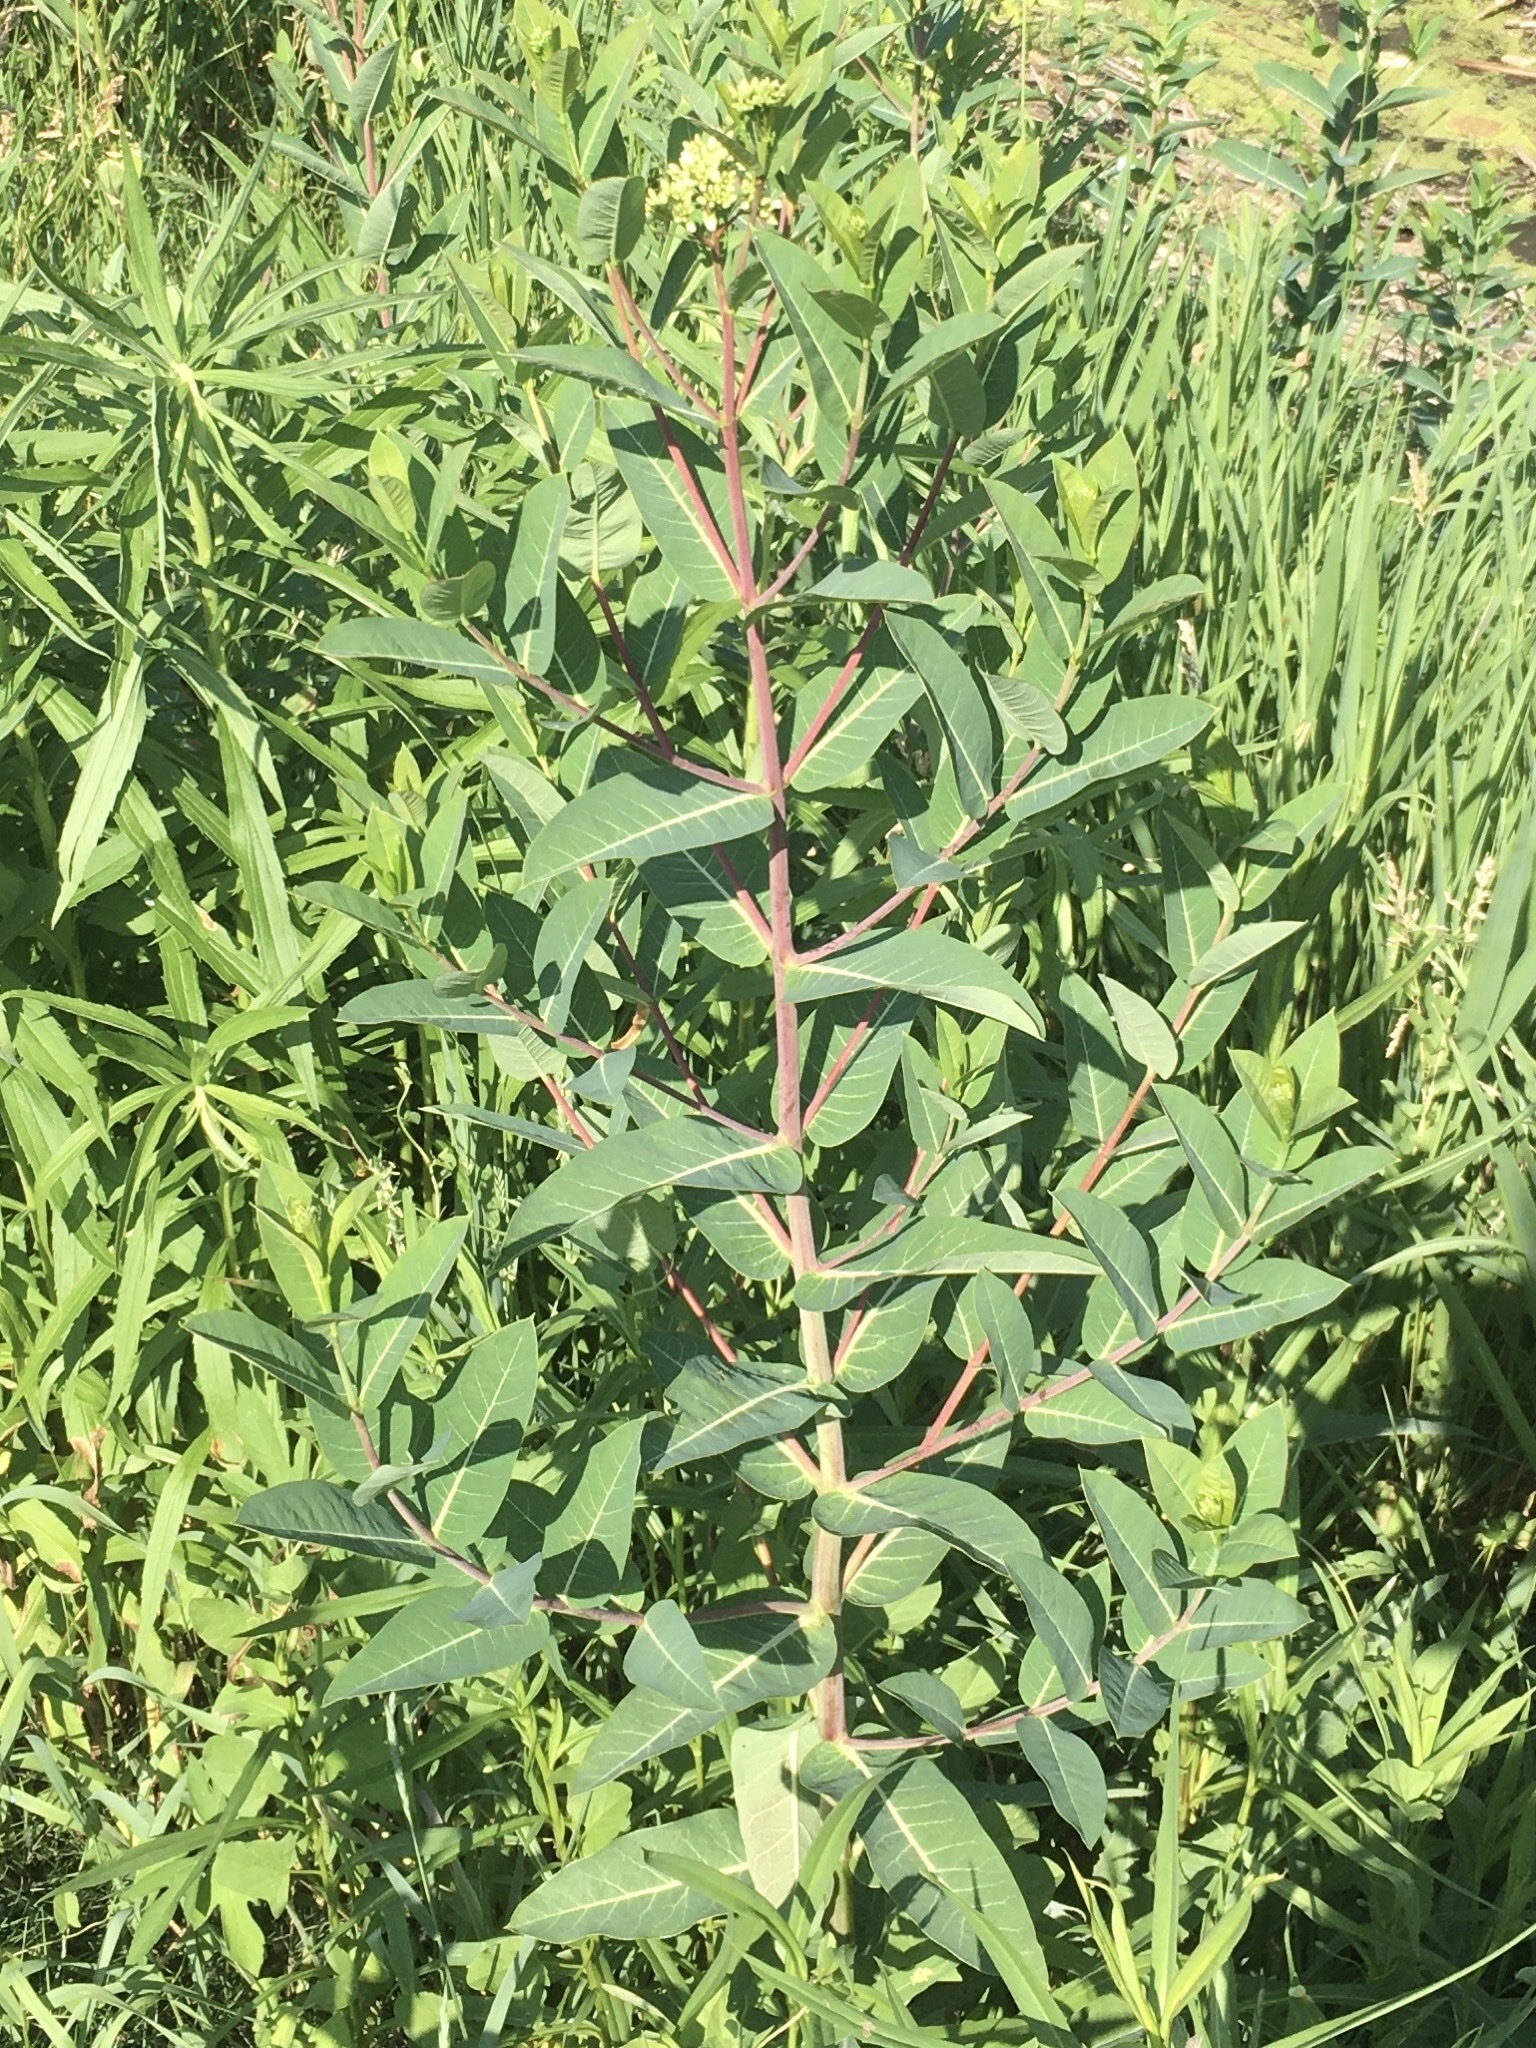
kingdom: Plantae
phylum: Tracheophyta
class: Magnoliopsida
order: Gentianales
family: Apocynaceae
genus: Apocynum
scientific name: Apocynum cannabinum
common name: Hemp dogbane
